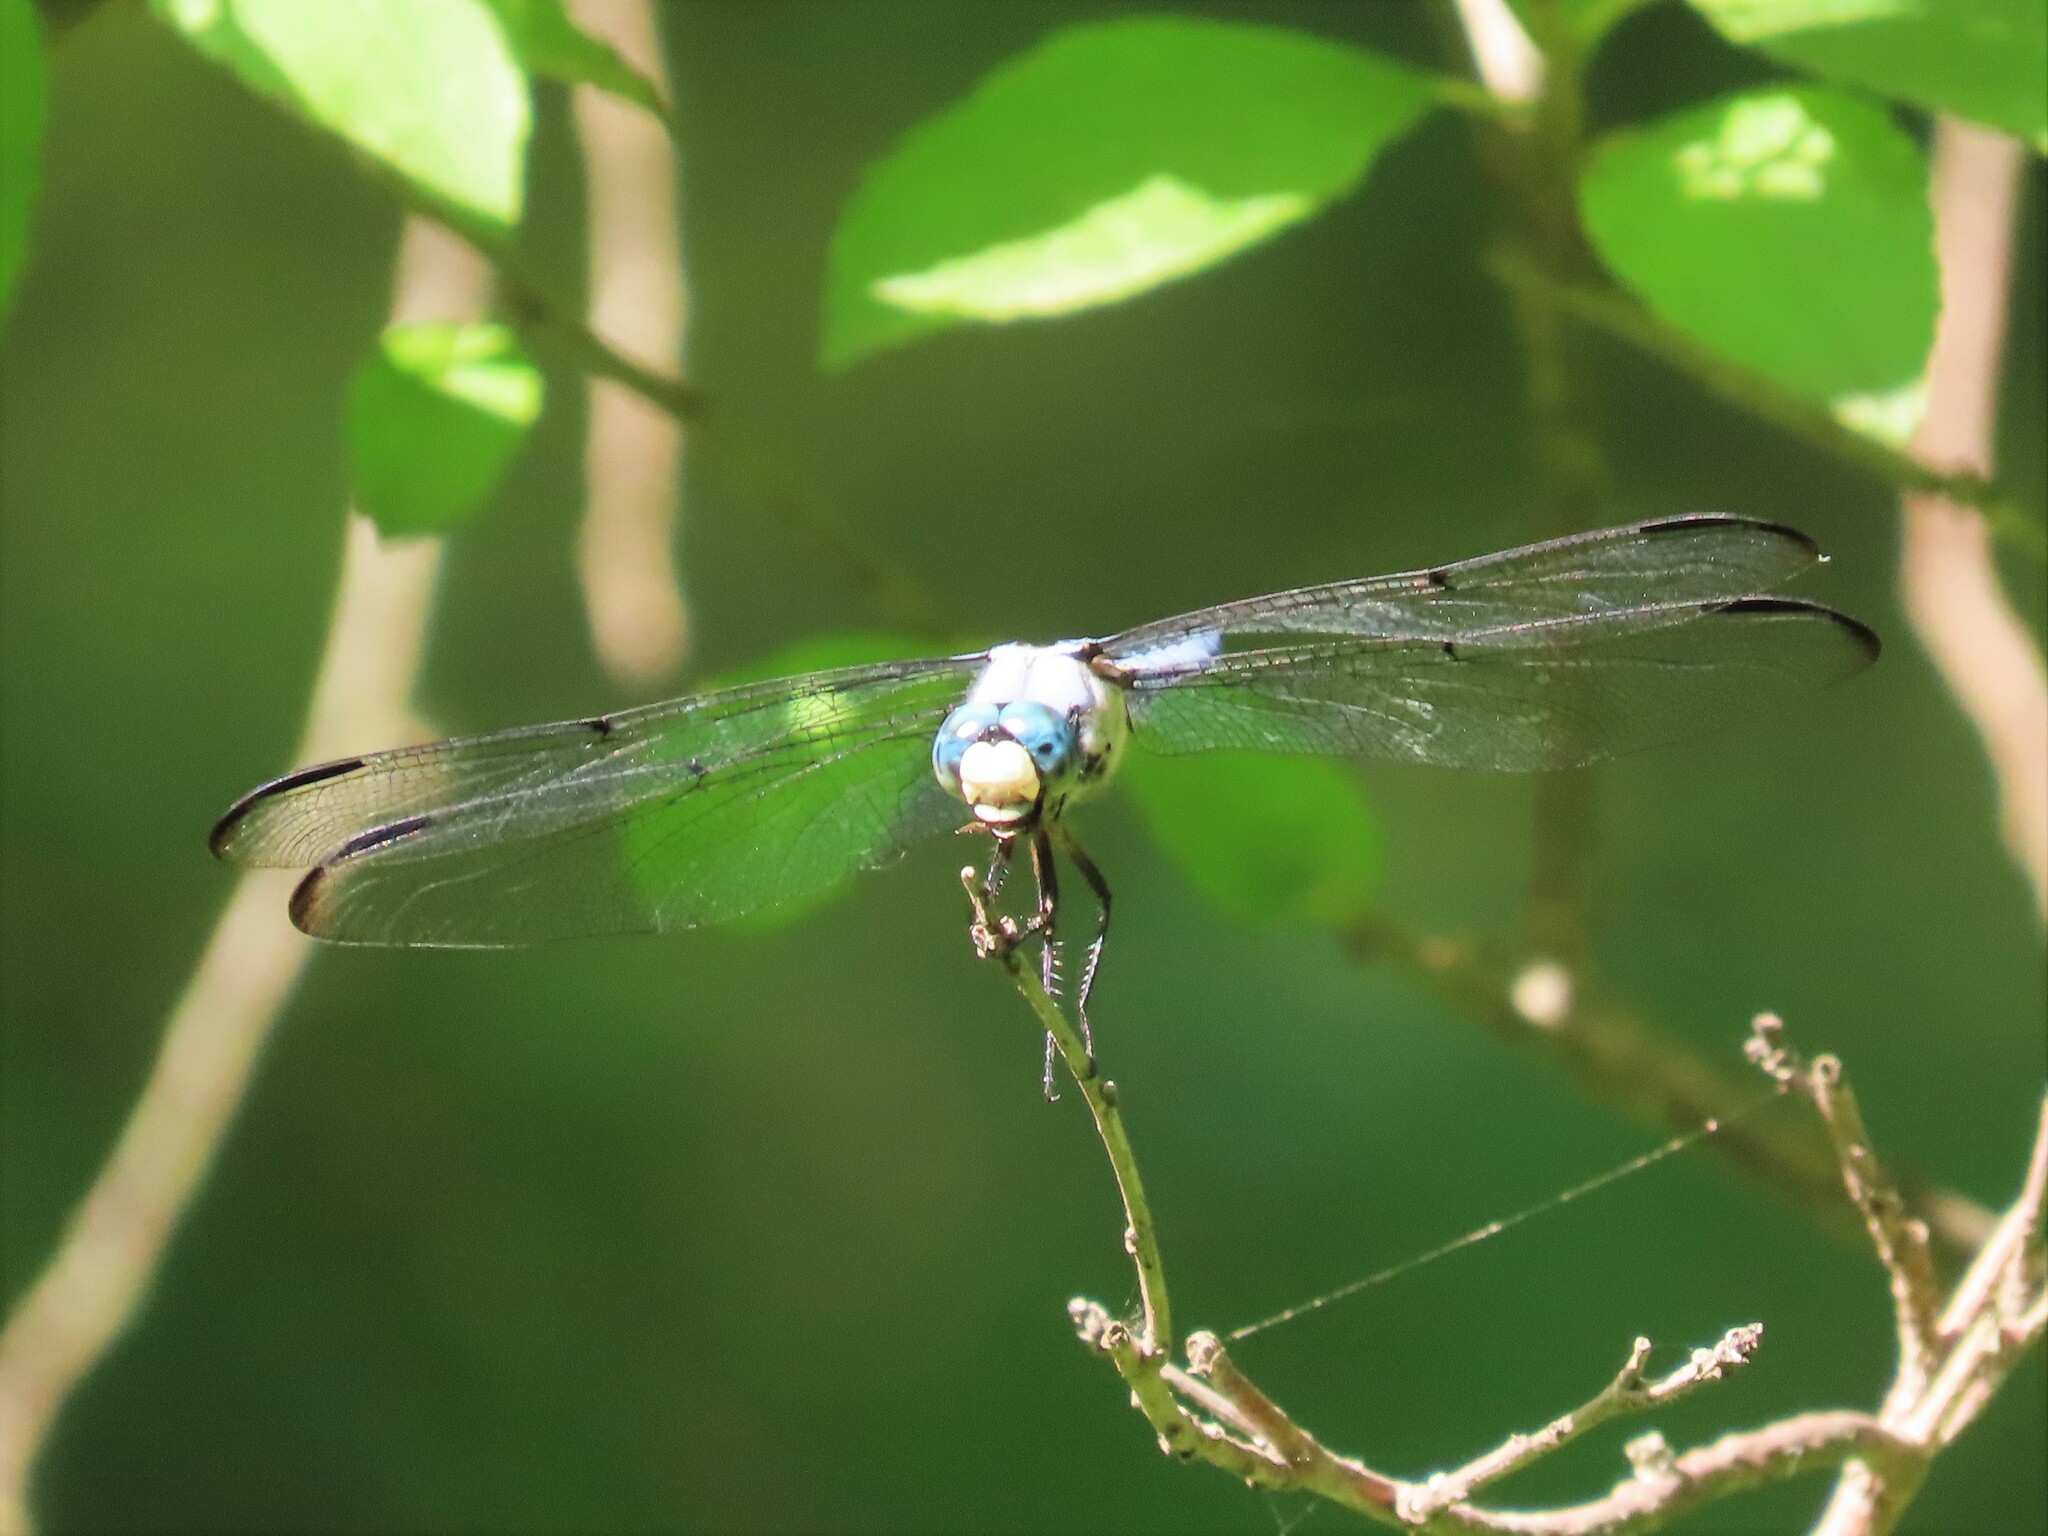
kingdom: Animalia
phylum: Arthropoda
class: Insecta
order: Odonata
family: Libellulidae
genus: Libellula
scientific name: Libellula vibrans
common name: Great blue skimmer
